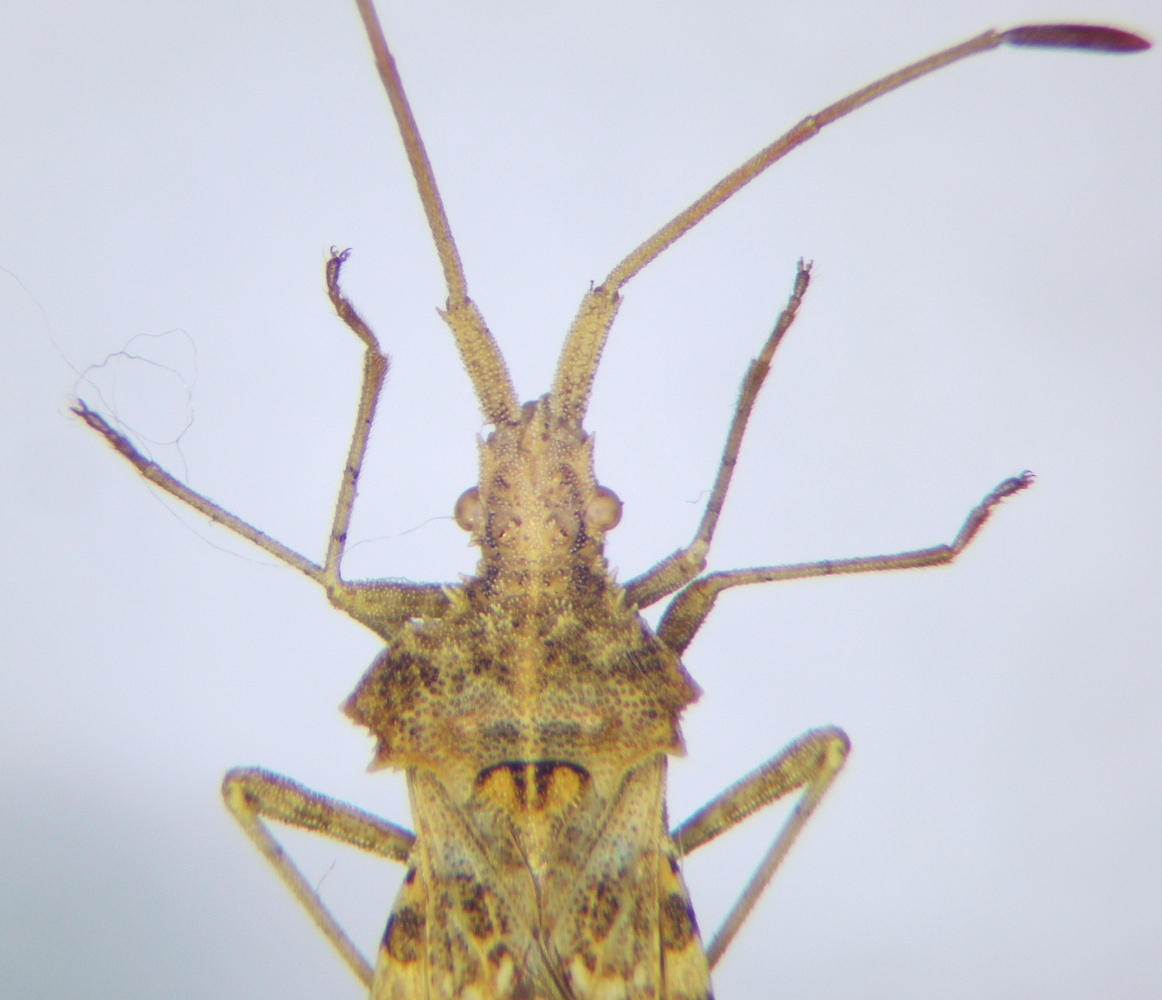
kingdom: Animalia
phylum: Arthropoda
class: Insecta
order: Hemiptera
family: Coreidae
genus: Centrocoris
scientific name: Centrocoris spiniger
